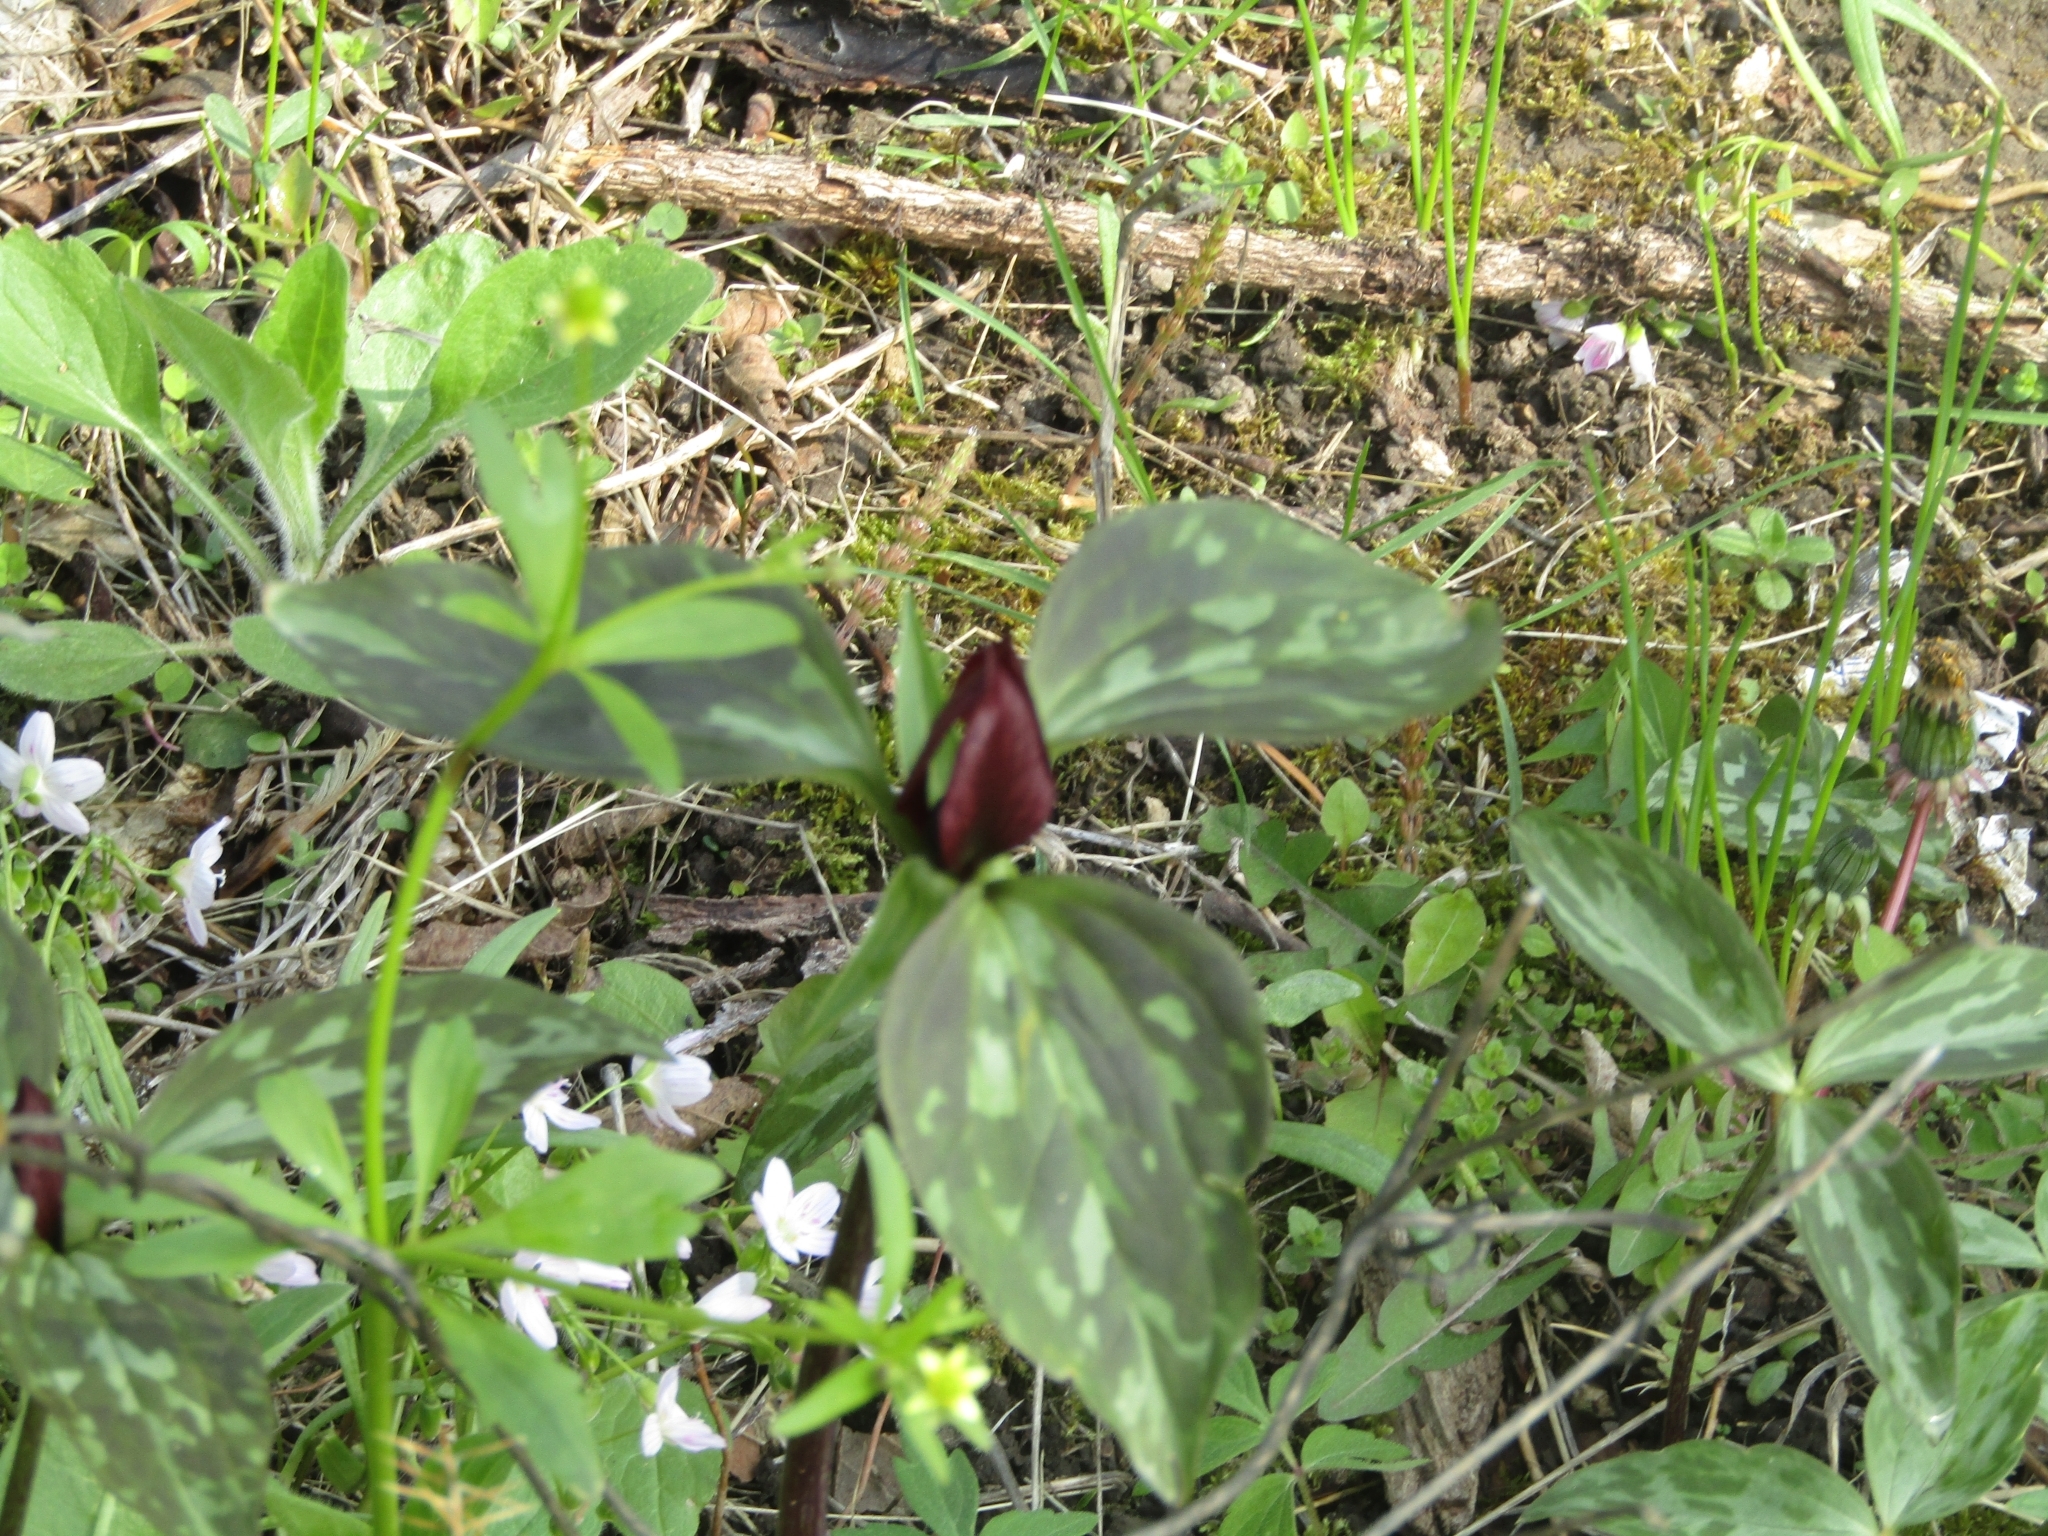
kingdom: Plantae
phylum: Tracheophyta
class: Liliopsida
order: Liliales
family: Melanthiaceae
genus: Trillium
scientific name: Trillium recurvatum
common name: Bloody butcher
